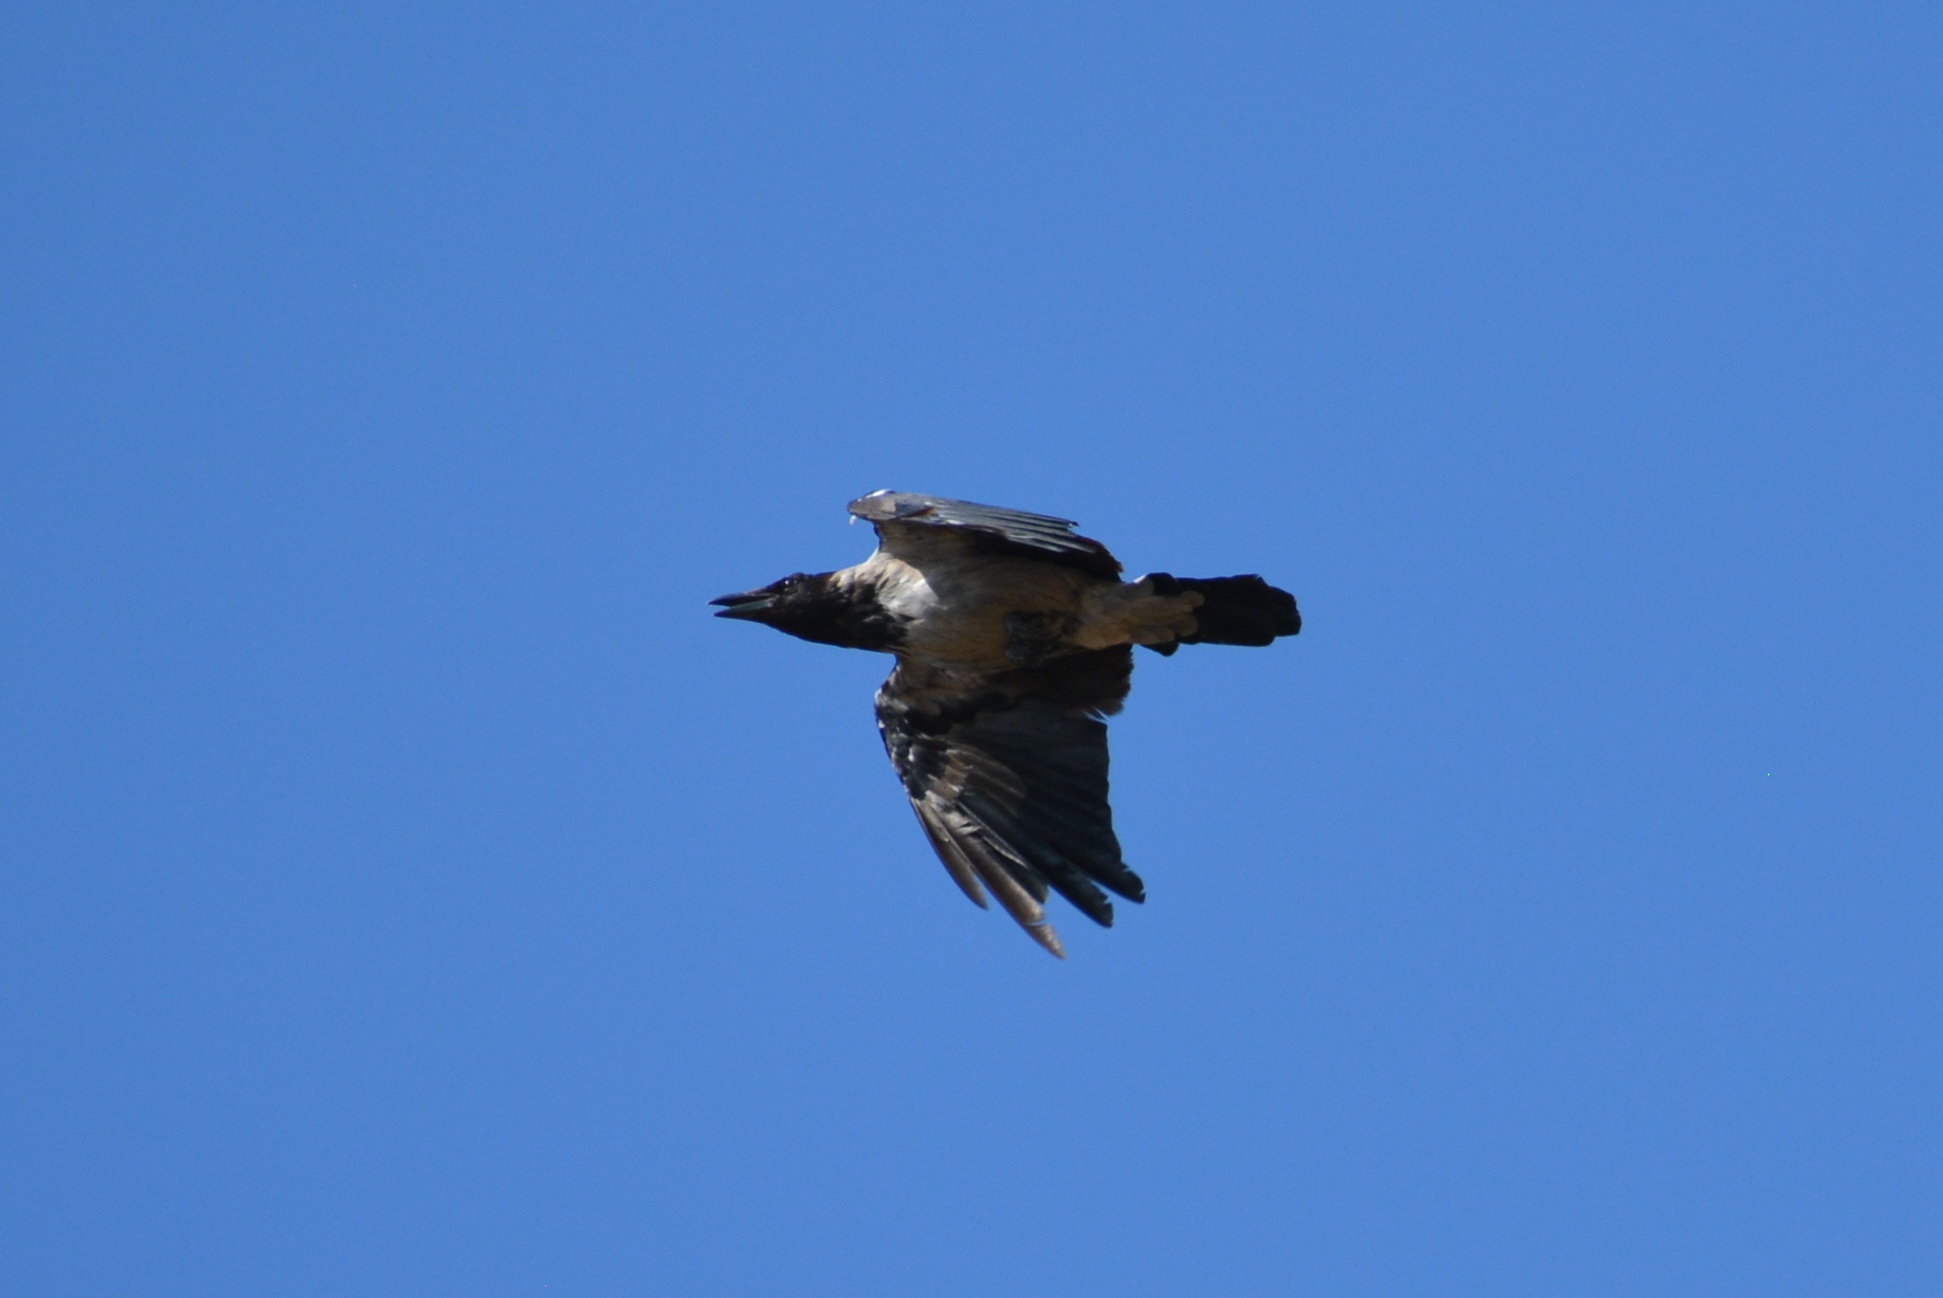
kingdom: Animalia
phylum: Chordata
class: Aves
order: Passeriformes
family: Corvidae
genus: Corvus
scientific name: Corvus cornix
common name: Hooded crow
